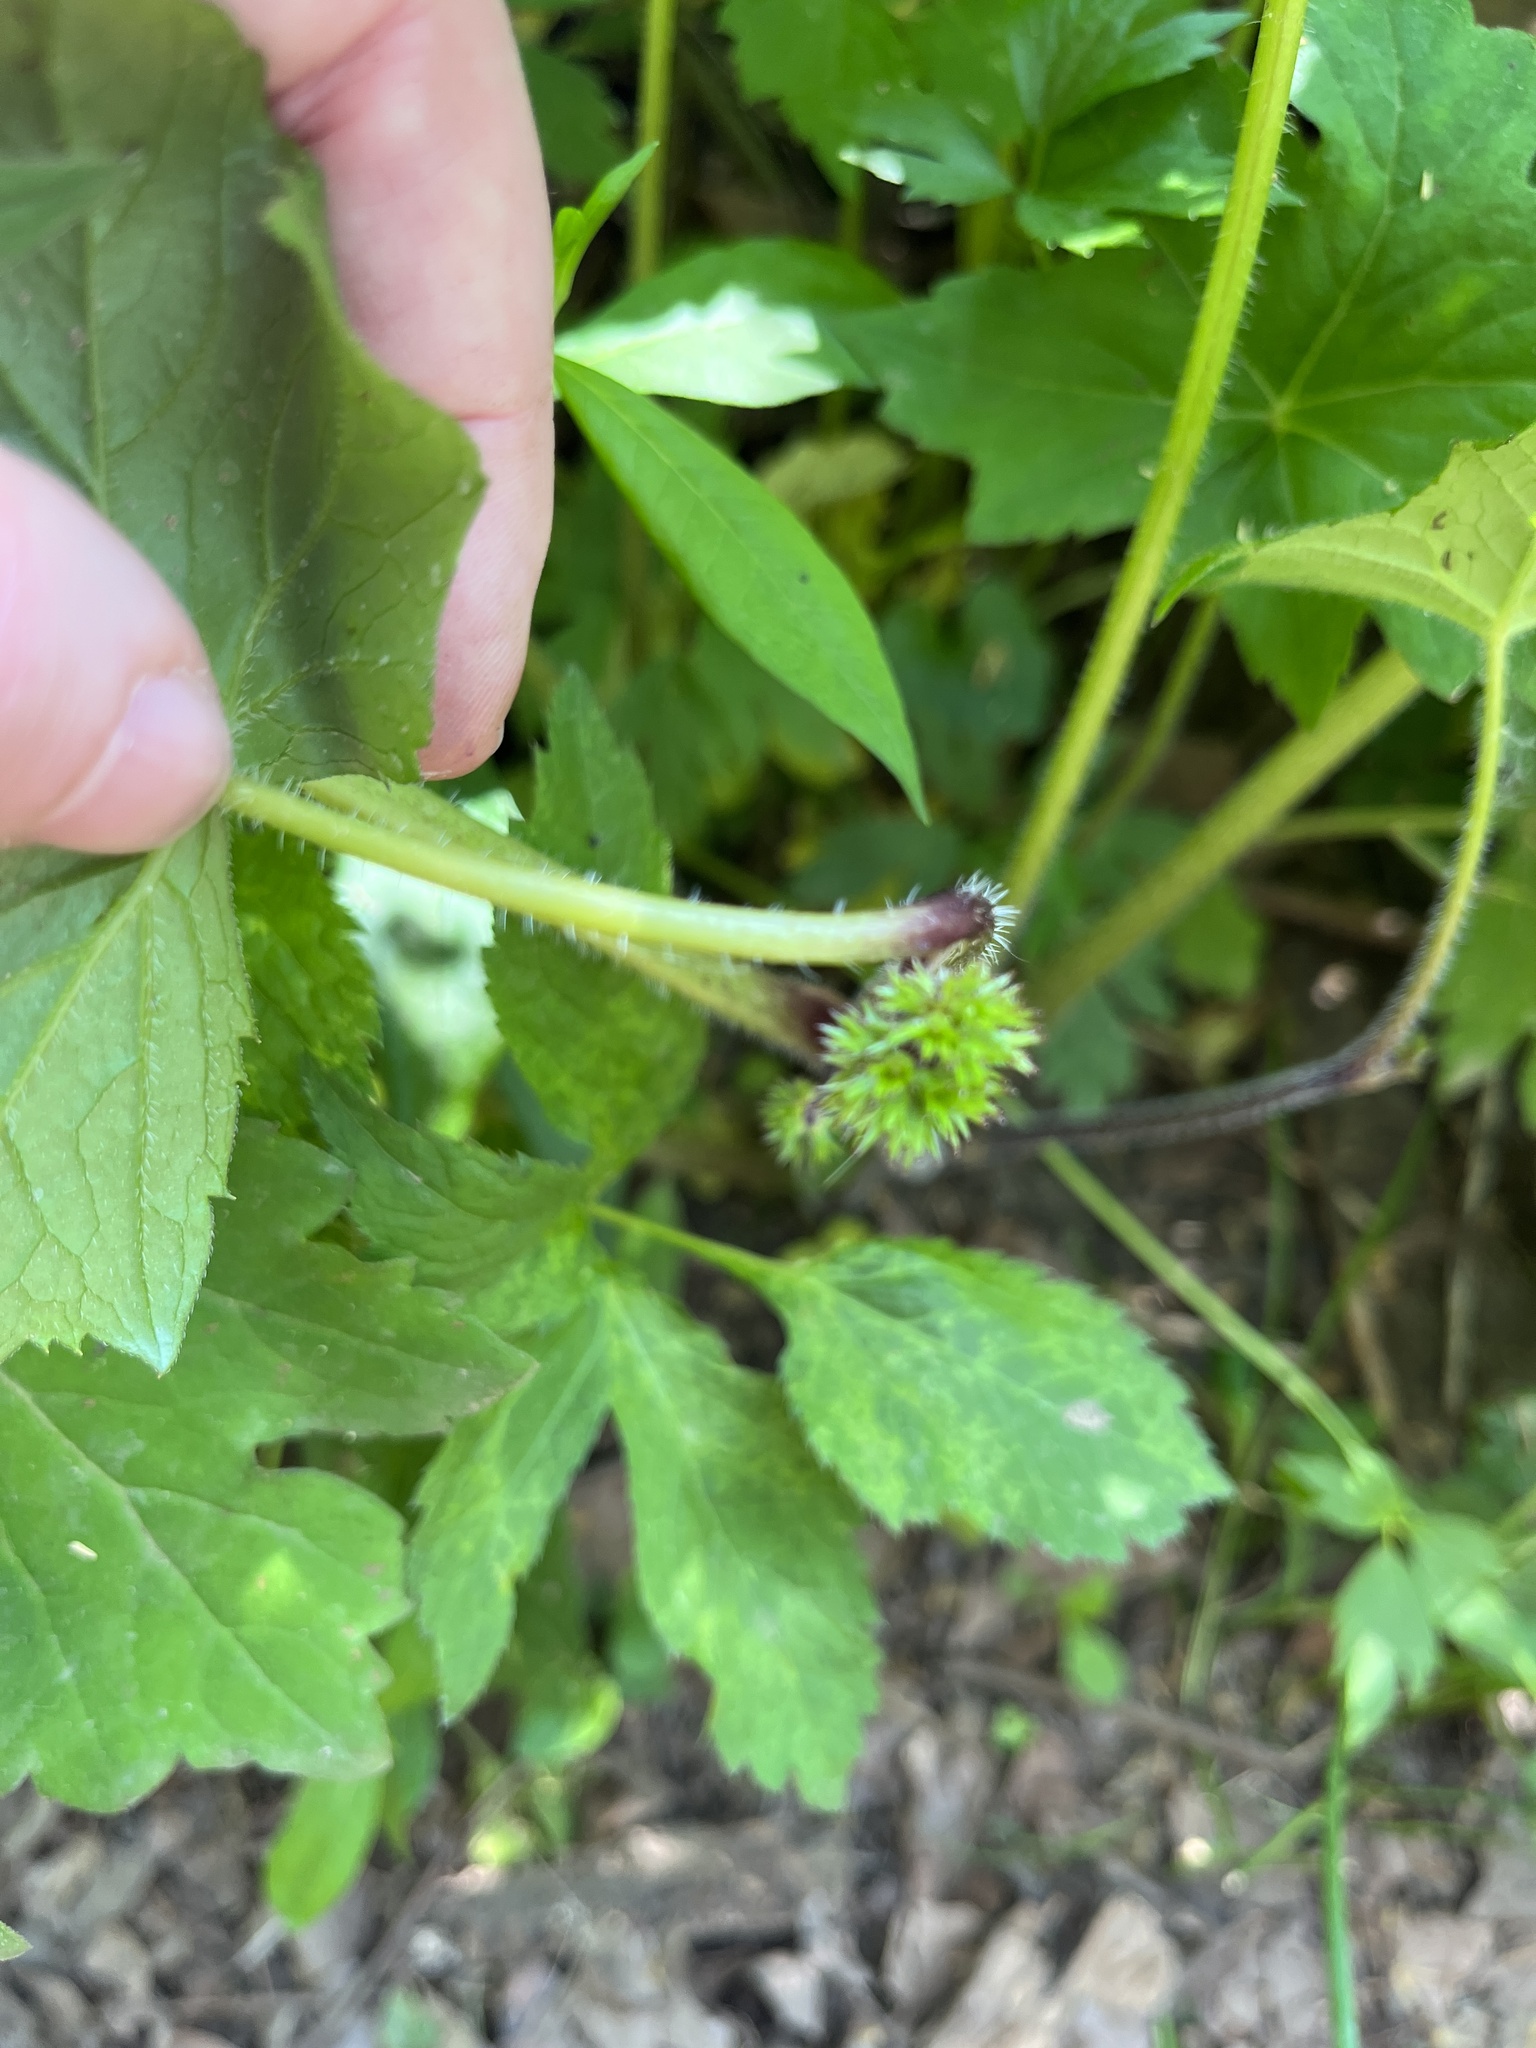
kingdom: Plantae
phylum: Tracheophyta
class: Magnoliopsida
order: Boraginales
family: Hydrophyllaceae
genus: Hydrophyllum
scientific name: Hydrophyllum canadense
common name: Canada waterleaf
